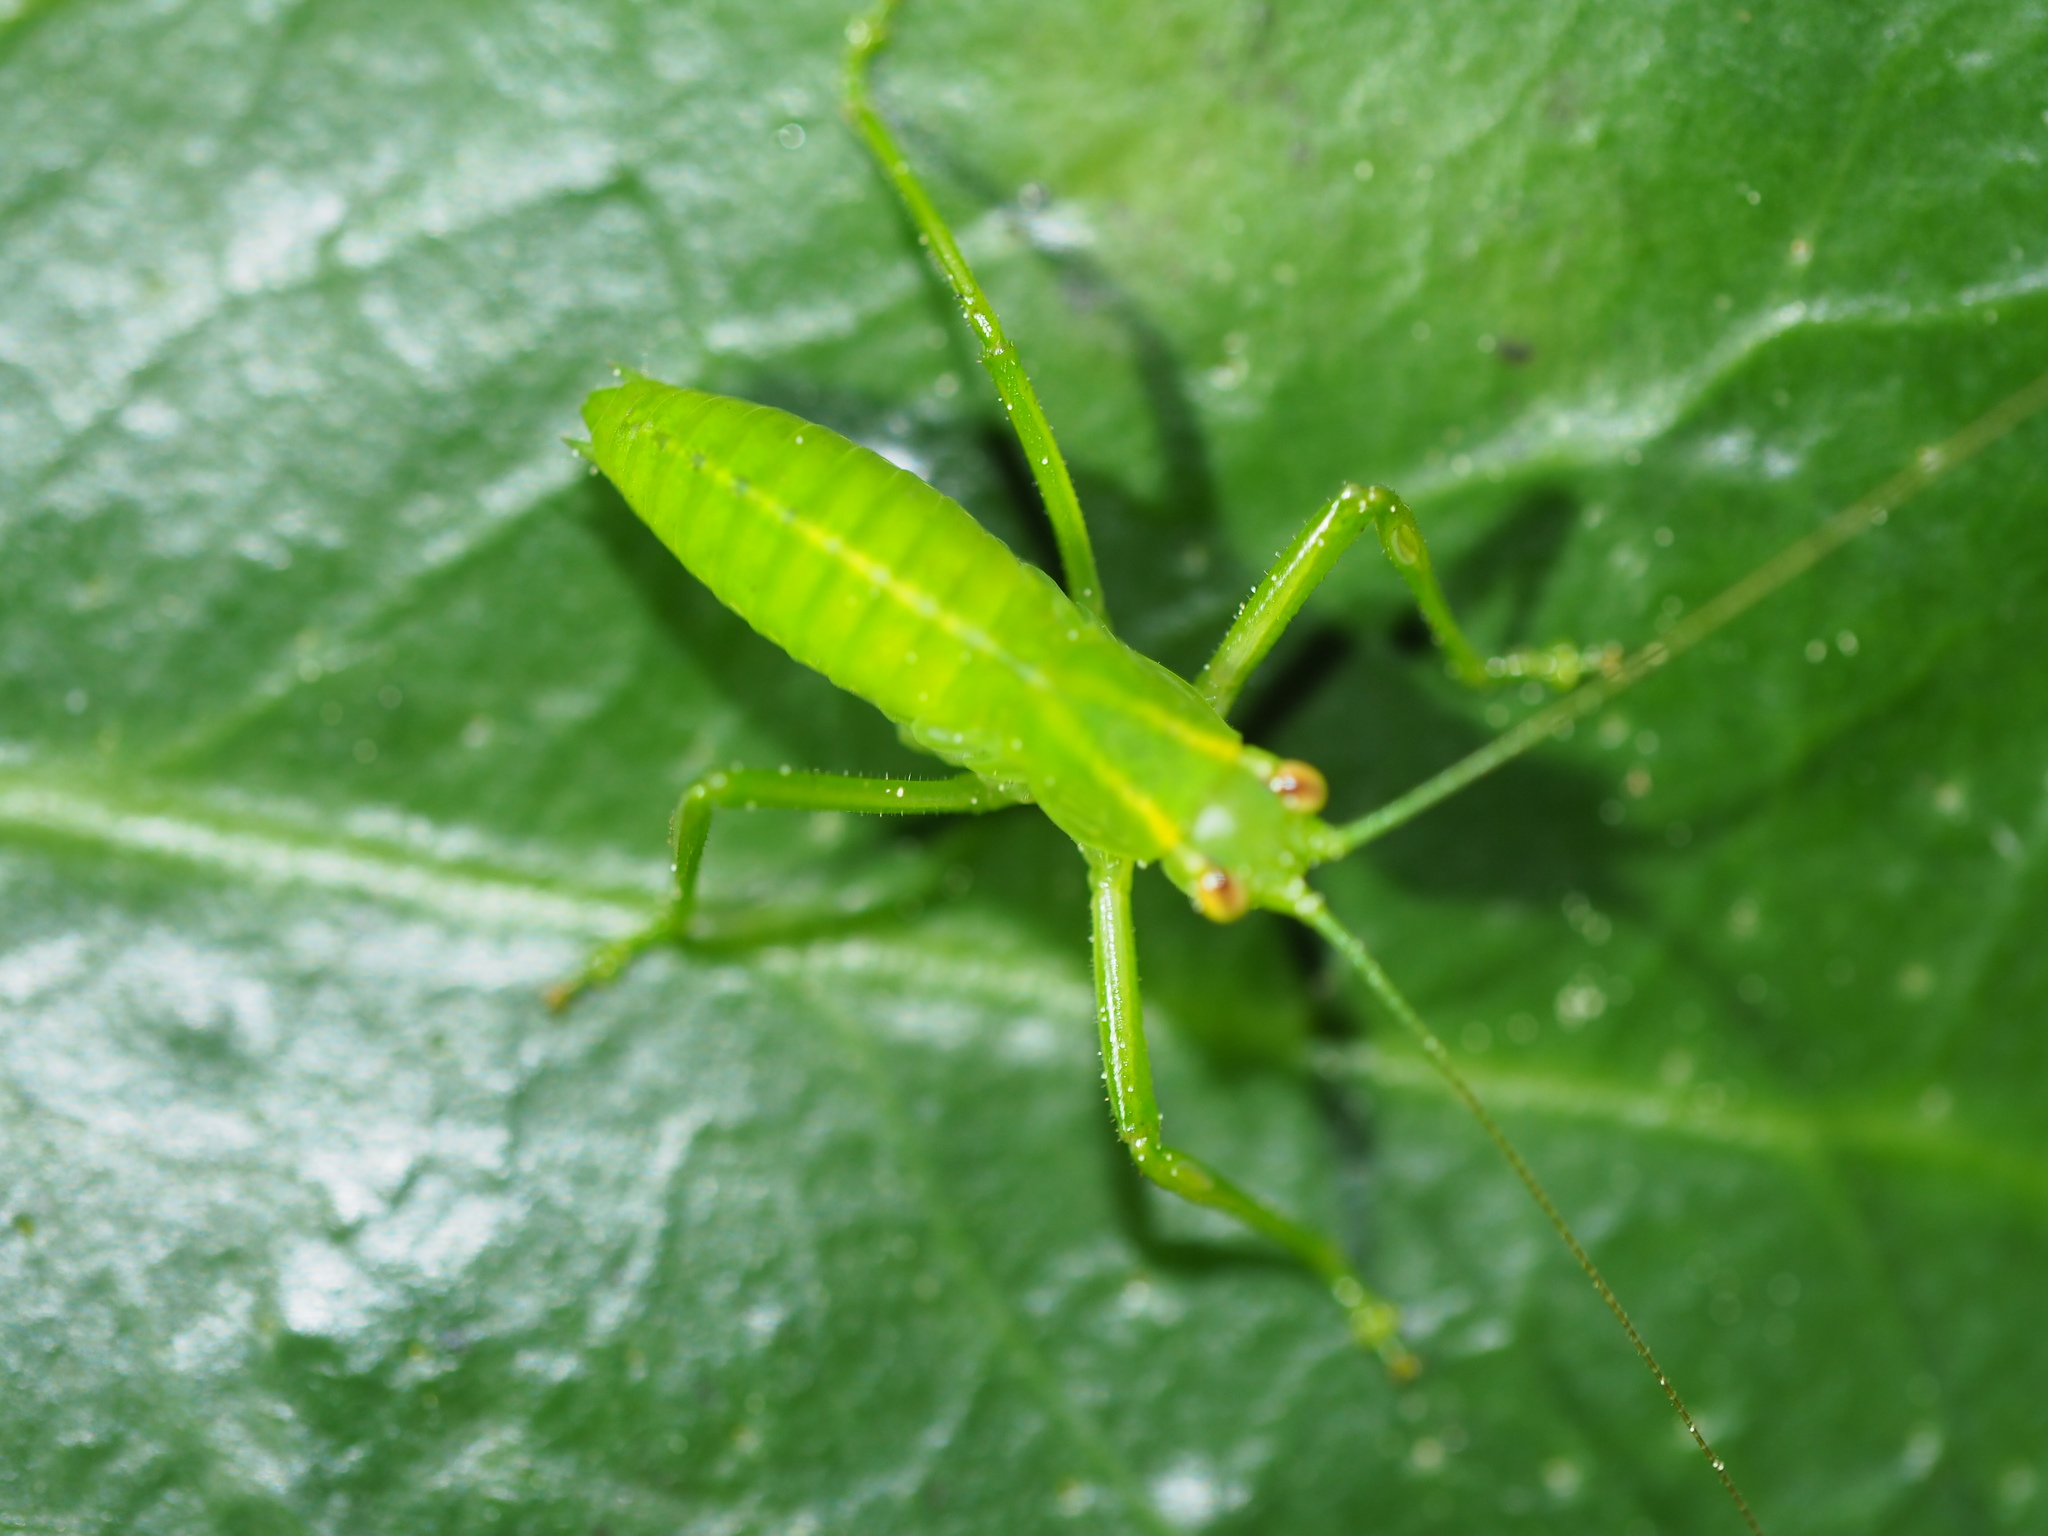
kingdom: Animalia
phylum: Arthropoda
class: Insecta
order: Orthoptera
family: Tettigoniidae
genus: Caedicia
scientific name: Caedicia simplex
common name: Common garden katydid
